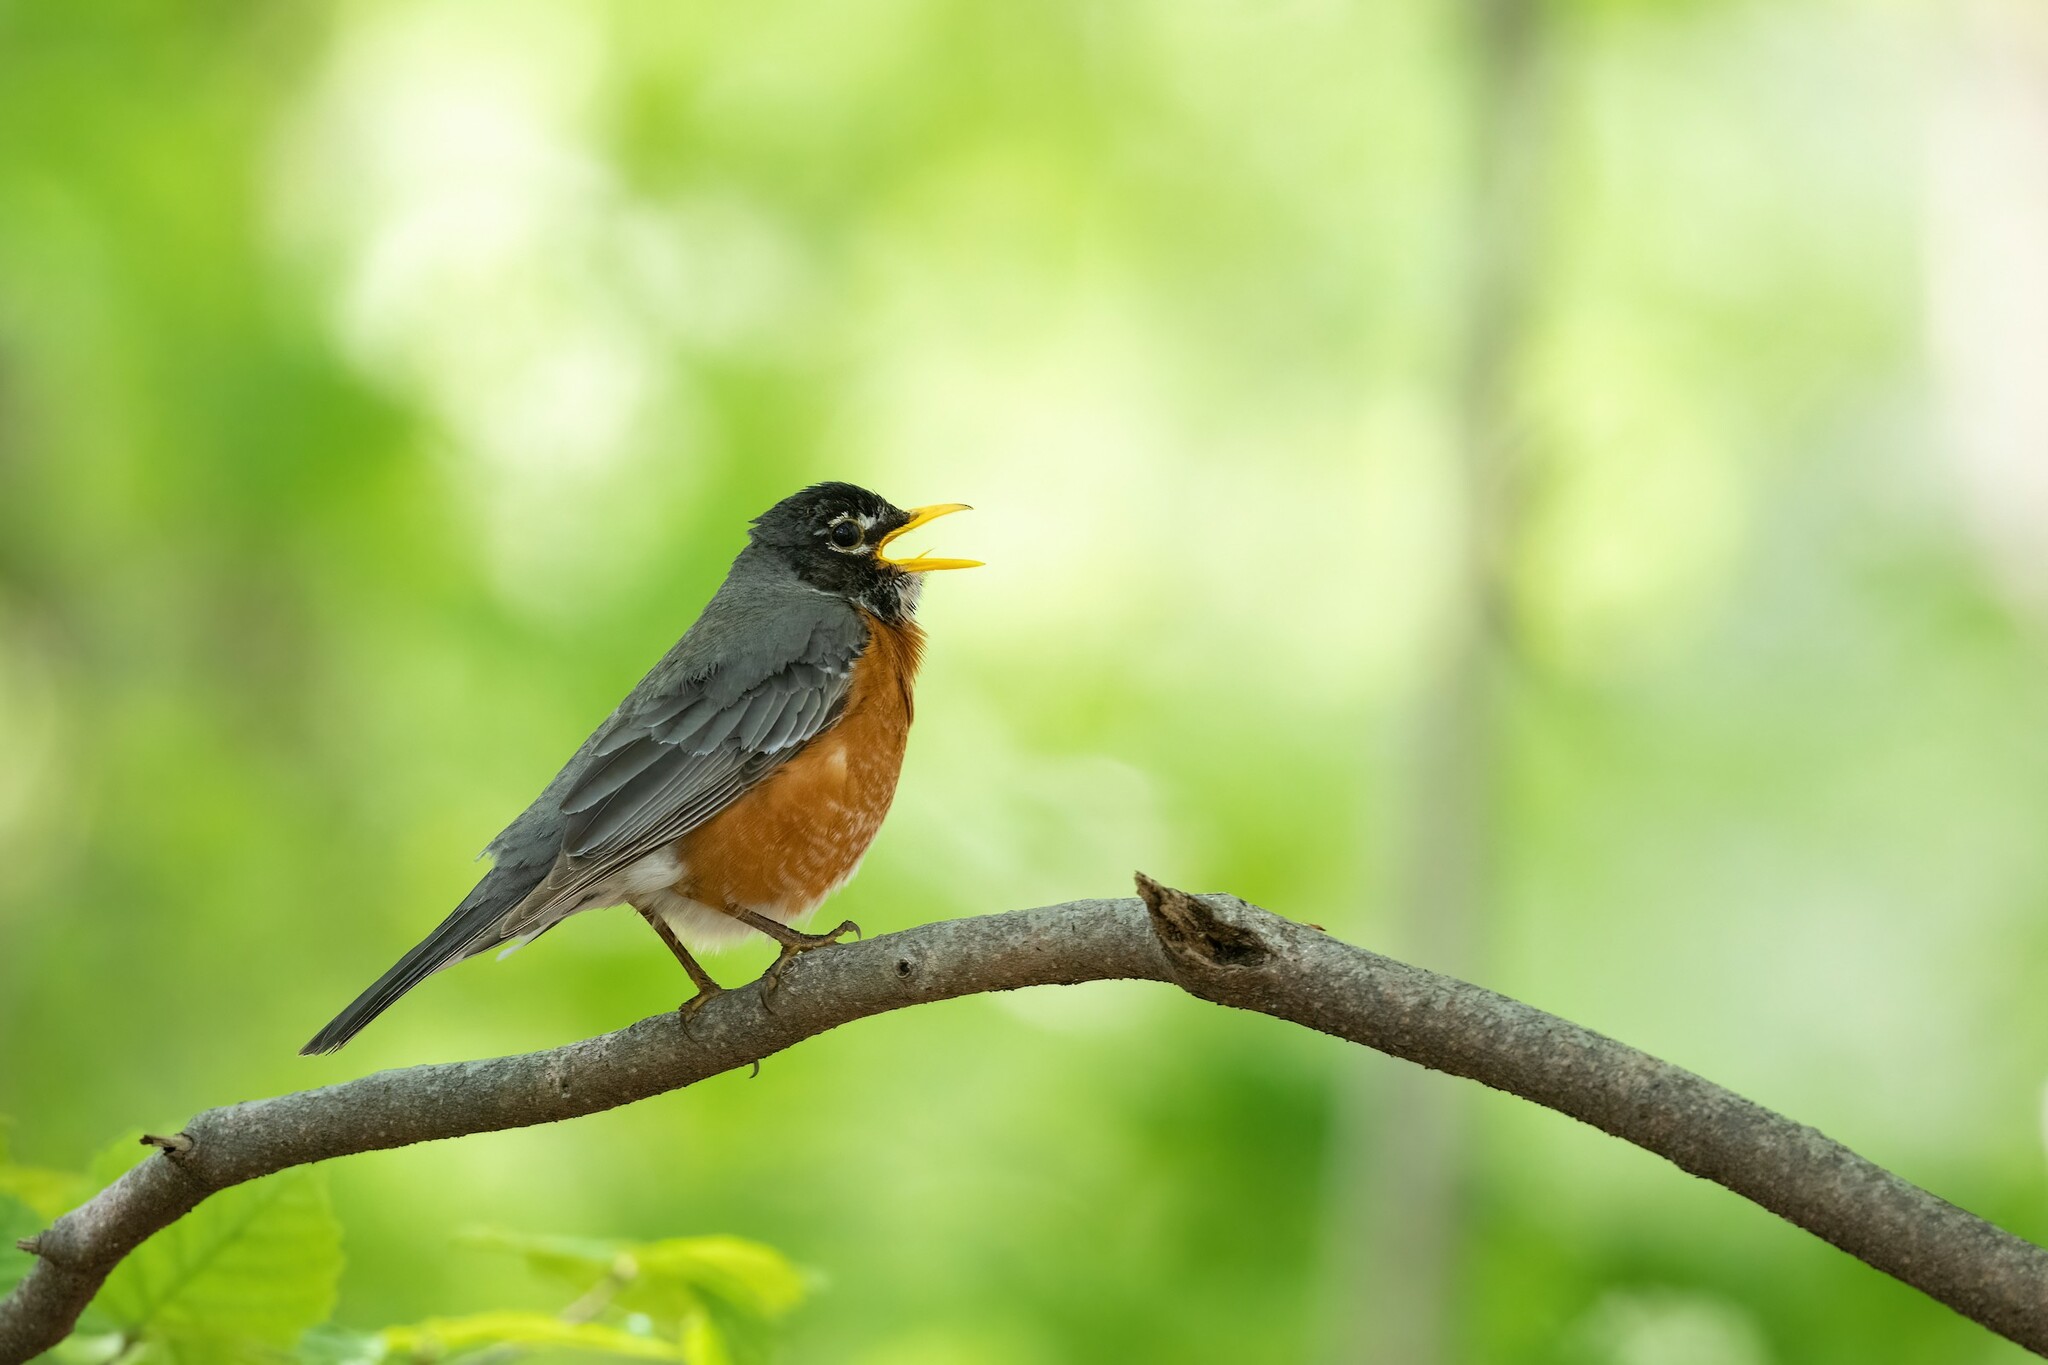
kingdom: Animalia
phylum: Chordata
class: Aves
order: Passeriformes
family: Turdidae
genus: Turdus
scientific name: Turdus migratorius
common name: American robin
